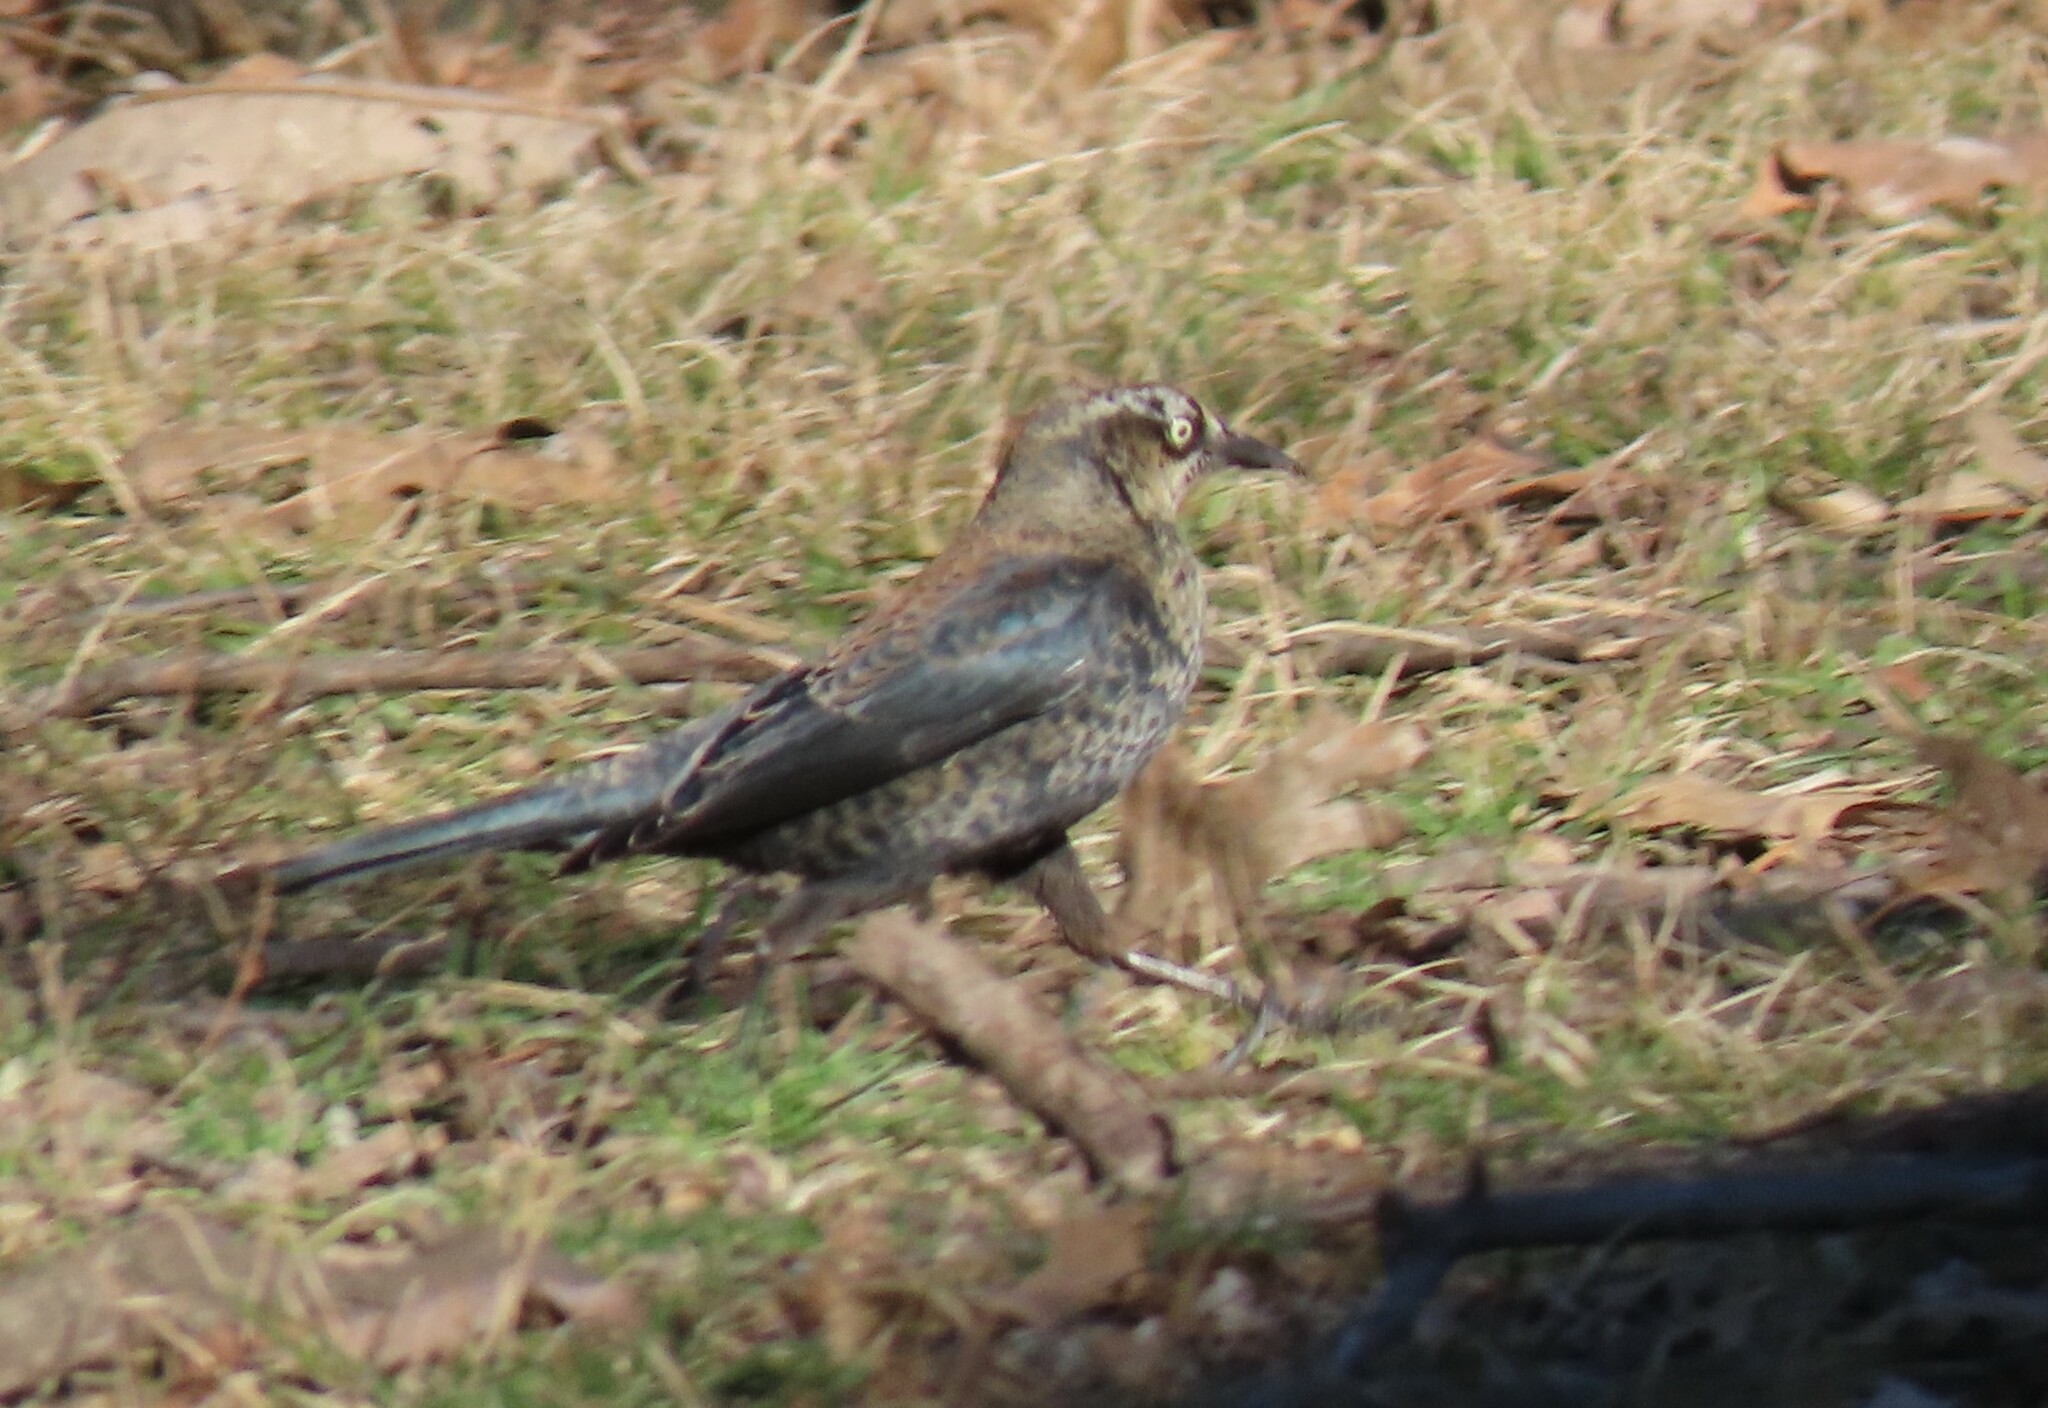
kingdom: Animalia
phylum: Chordata
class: Aves
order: Passeriformes
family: Icteridae
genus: Euphagus
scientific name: Euphagus carolinus
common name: Rusty blackbird
